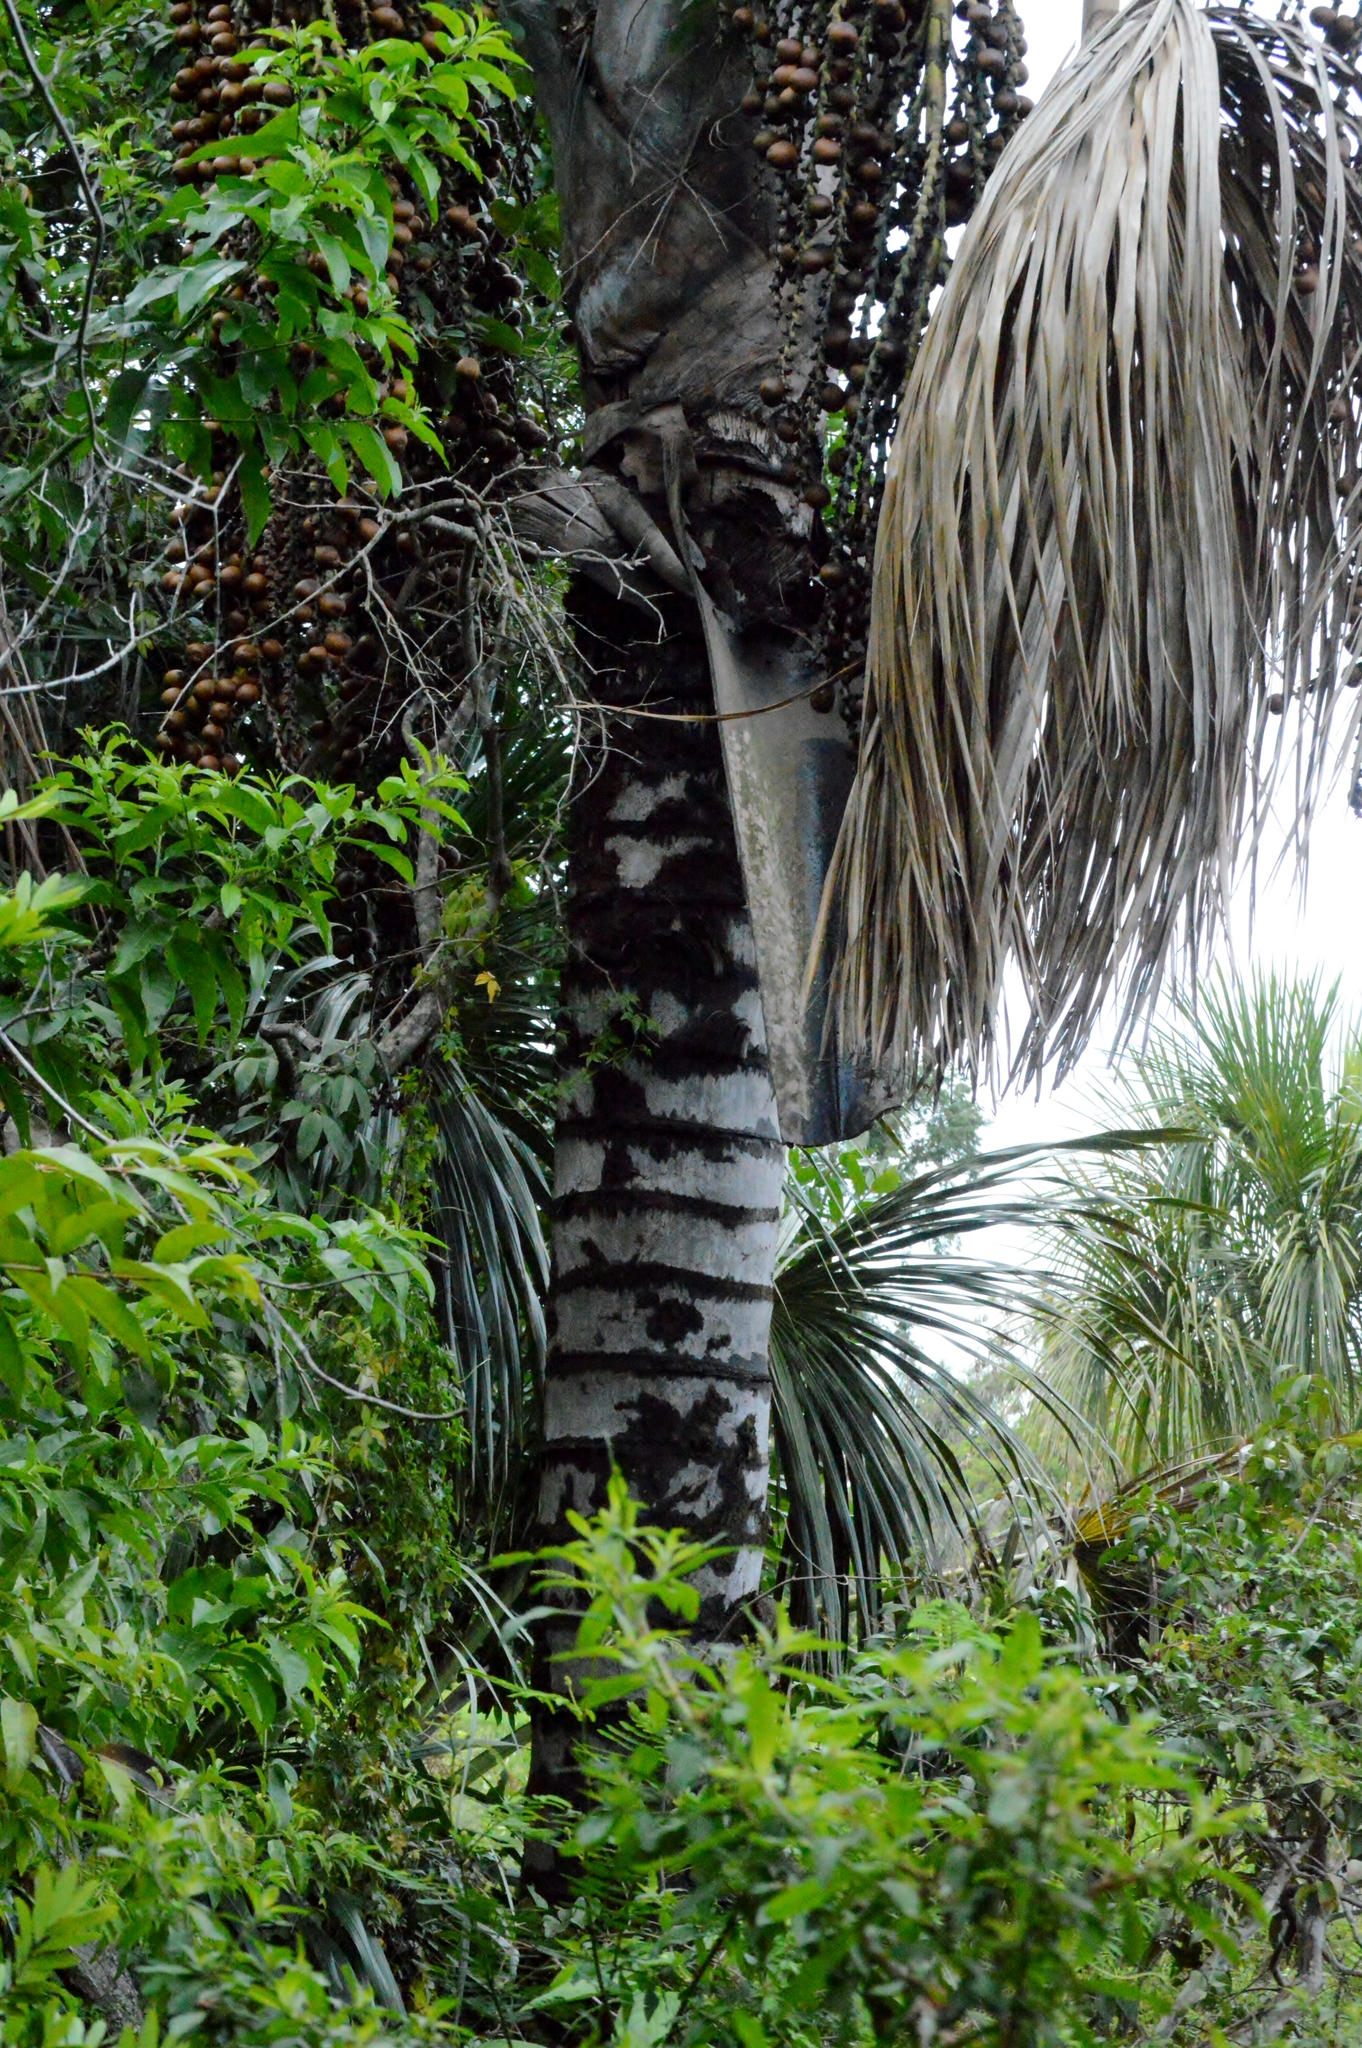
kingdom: Plantae
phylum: Tracheophyta
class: Liliopsida
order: Arecales
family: Arecaceae
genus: Mauritia
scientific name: Mauritia flexuosa
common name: Tree-of-life
